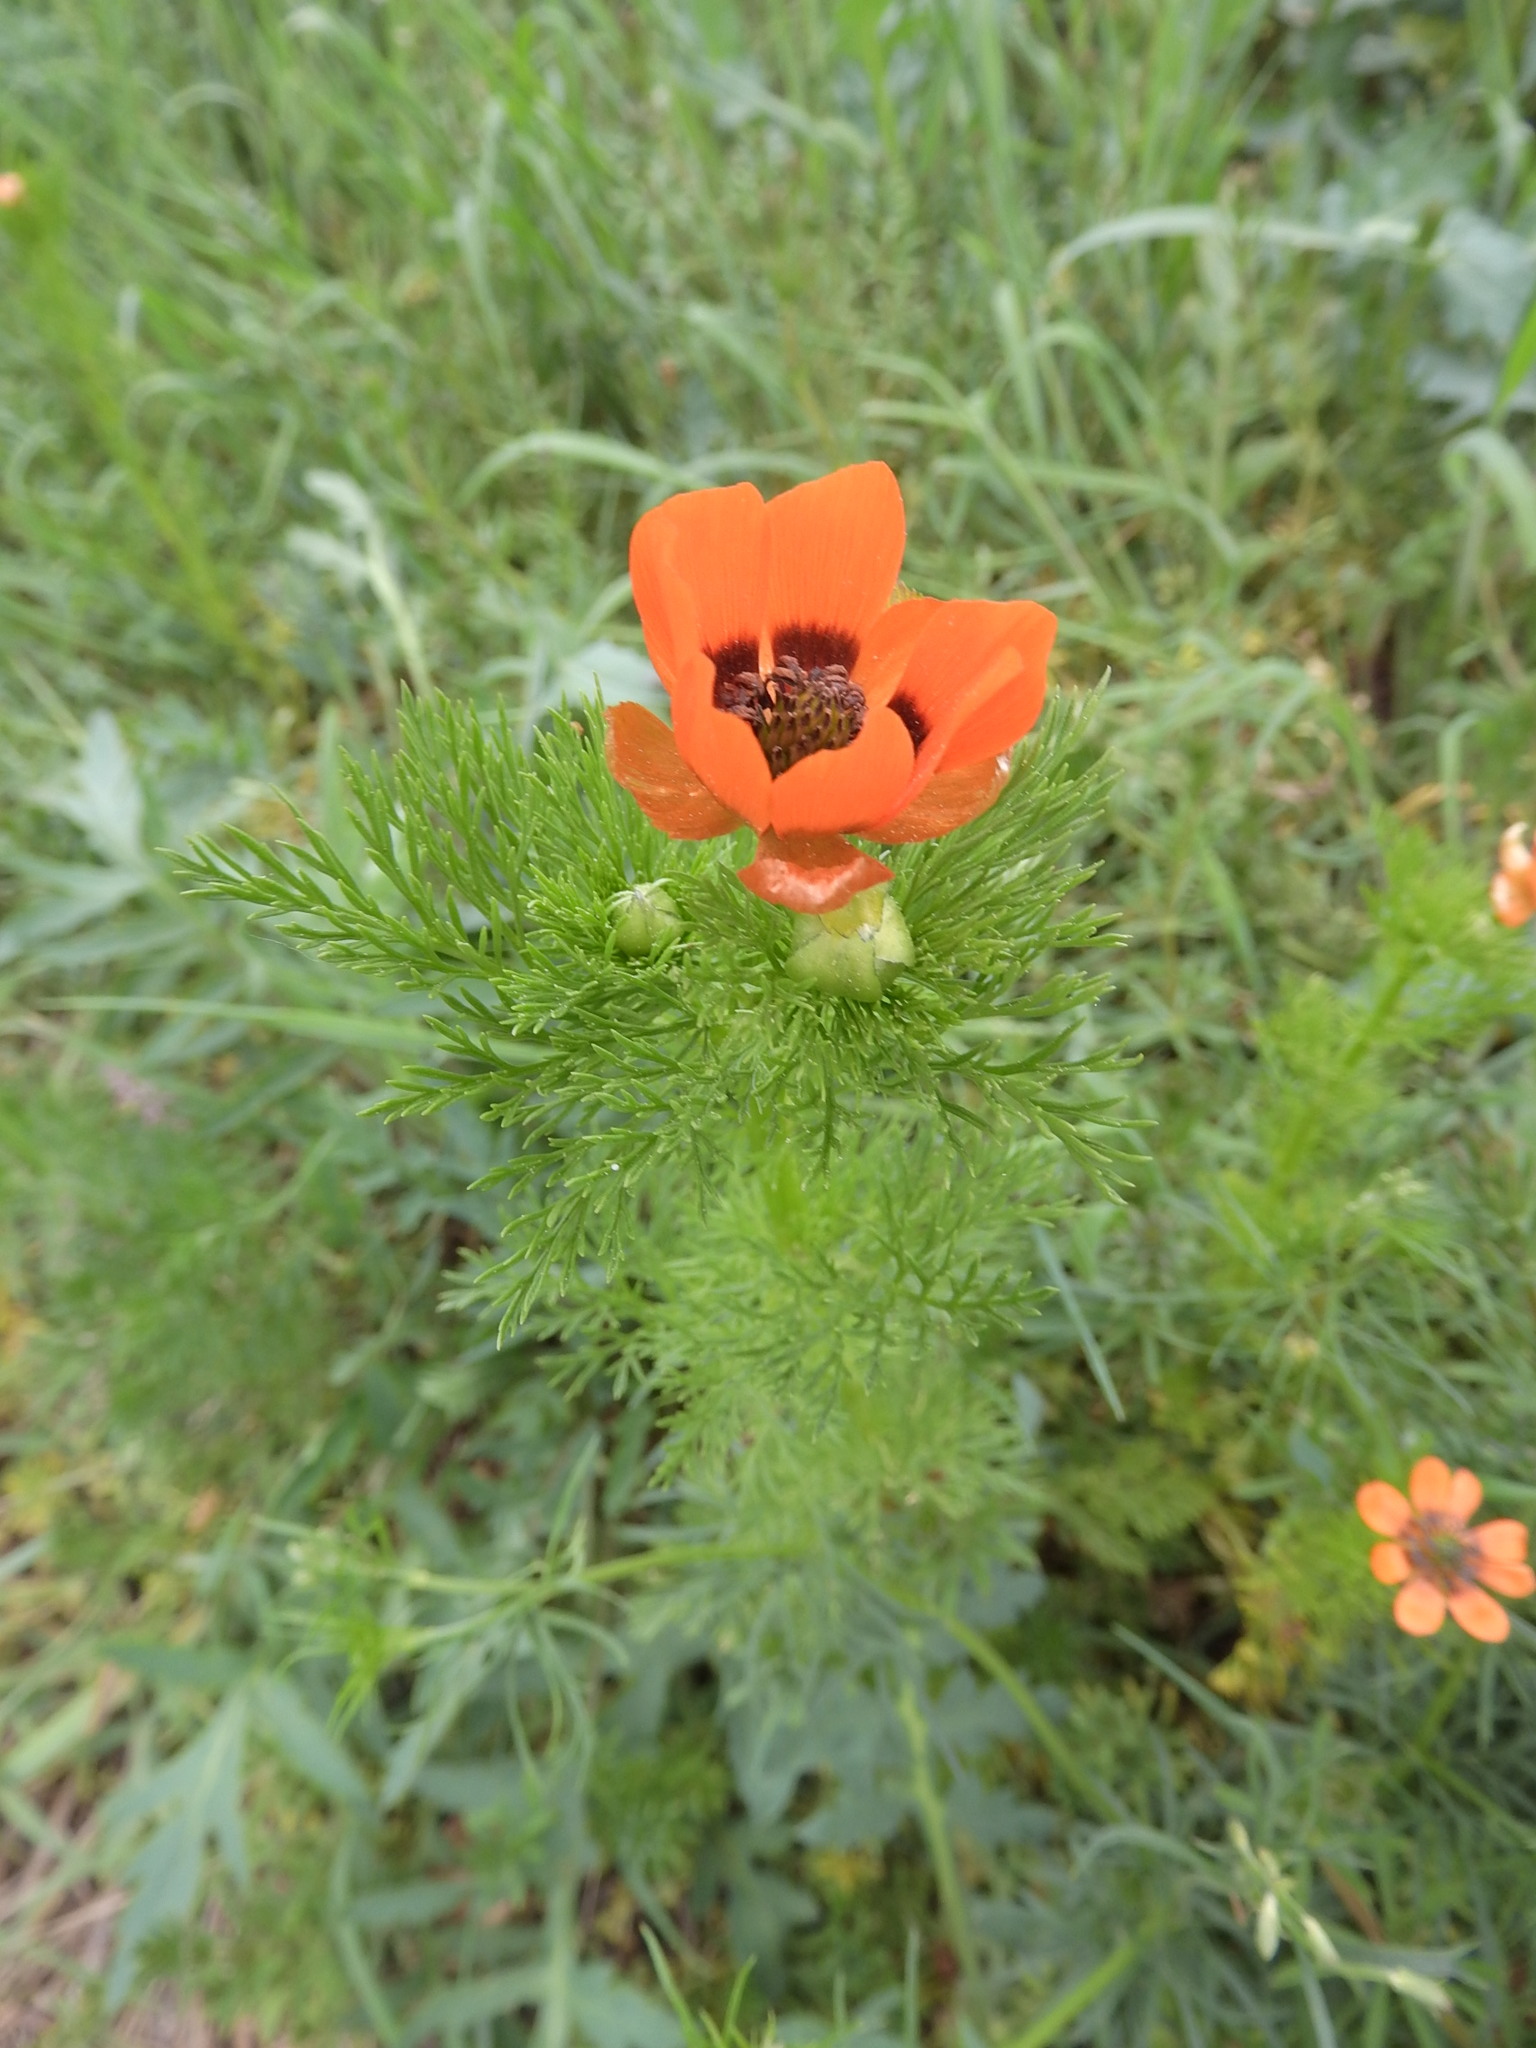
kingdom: Plantae
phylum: Tracheophyta
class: Magnoliopsida
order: Ranunculales
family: Ranunculaceae
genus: Adonis
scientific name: Adonis aestivalis
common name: Summer pheasant's-eye
